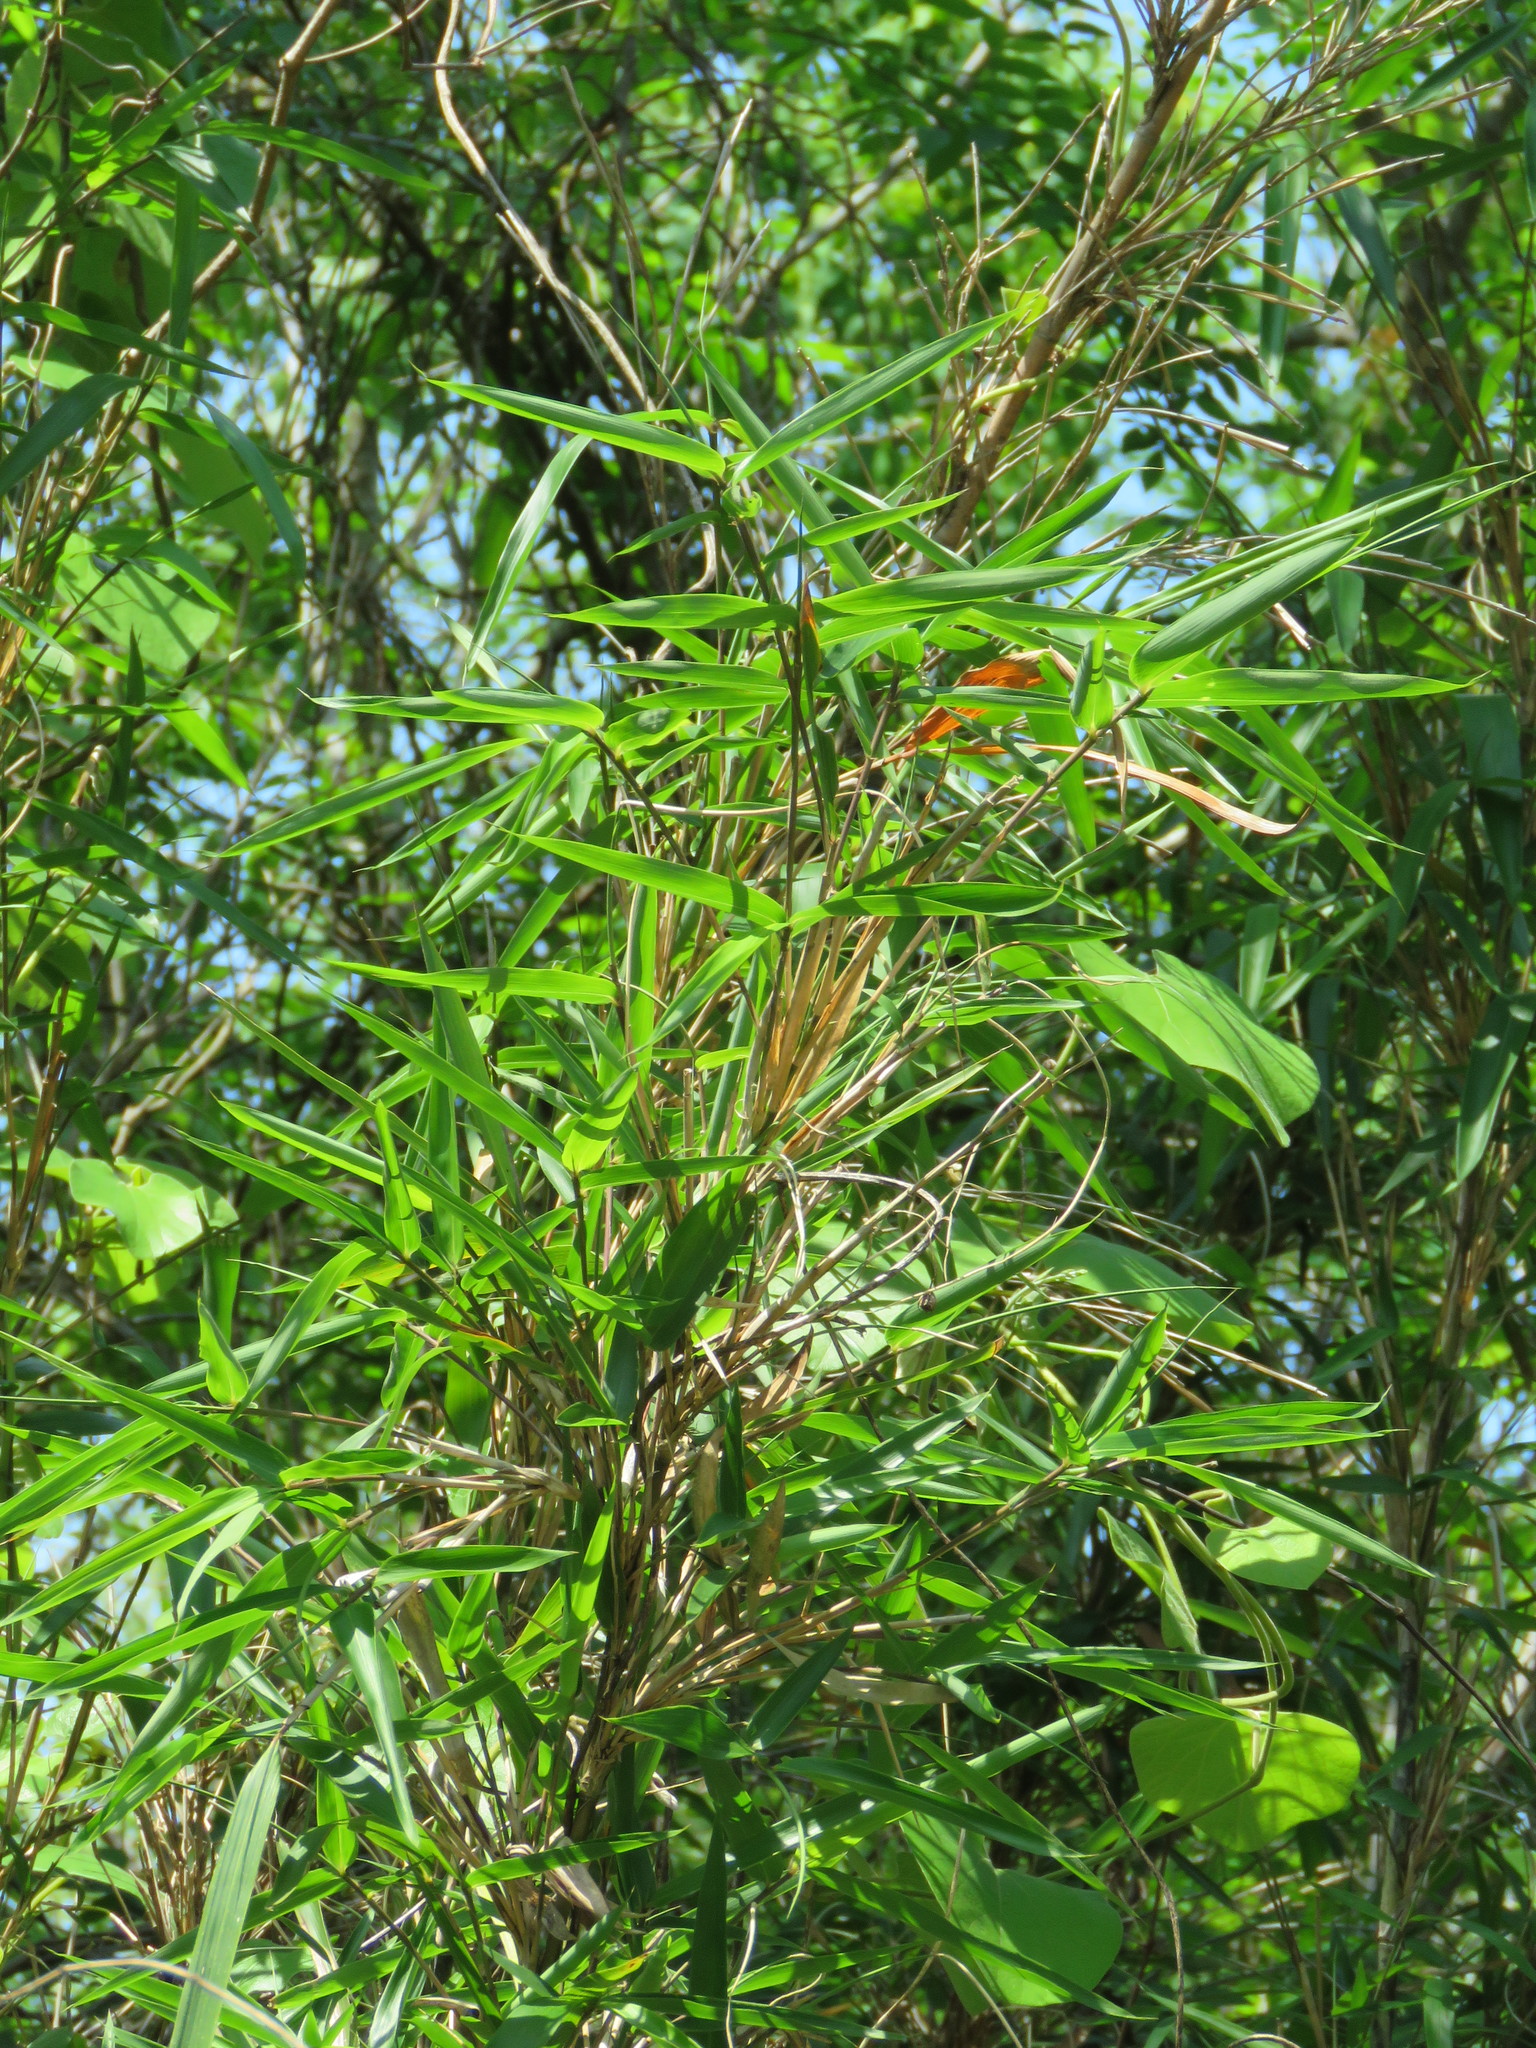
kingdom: Plantae
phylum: Tracheophyta
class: Liliopsida
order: Poales
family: Poaceae
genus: Arundinaria
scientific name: Arundinaria gigantea
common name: Giant cane
